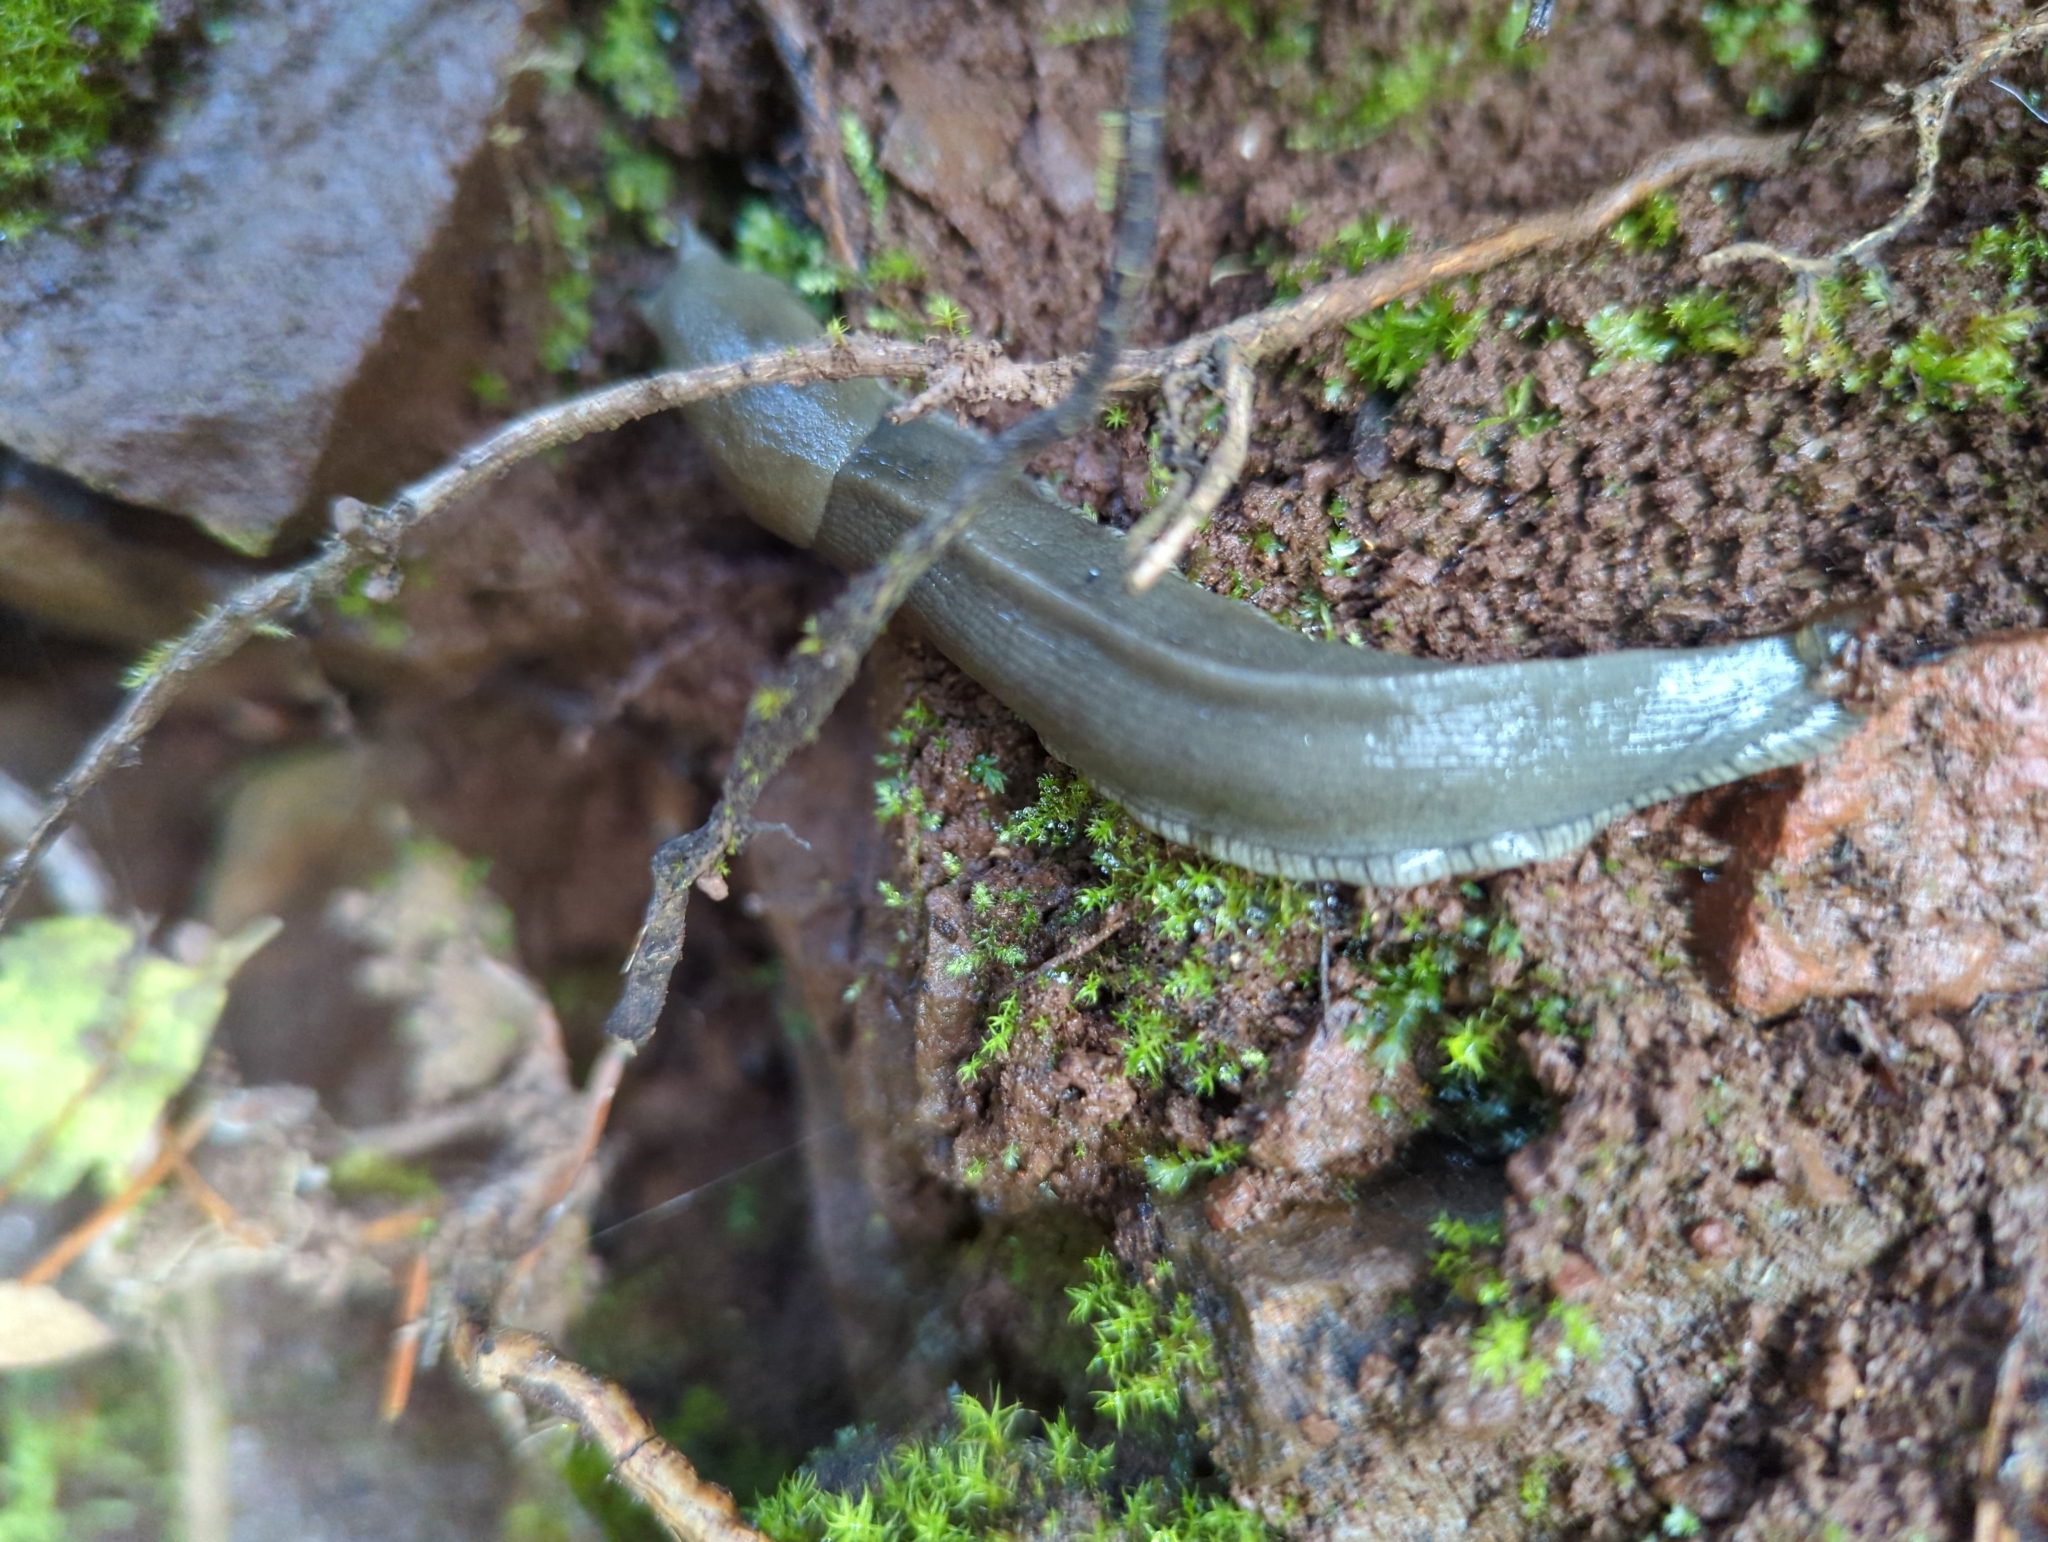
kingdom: Animalia
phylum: Mollusca
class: Gastropoda
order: Stylommatophora
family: Ariolimacidae
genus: Ariolimax
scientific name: Ariolimax columbianus
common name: Pacific banana slug
